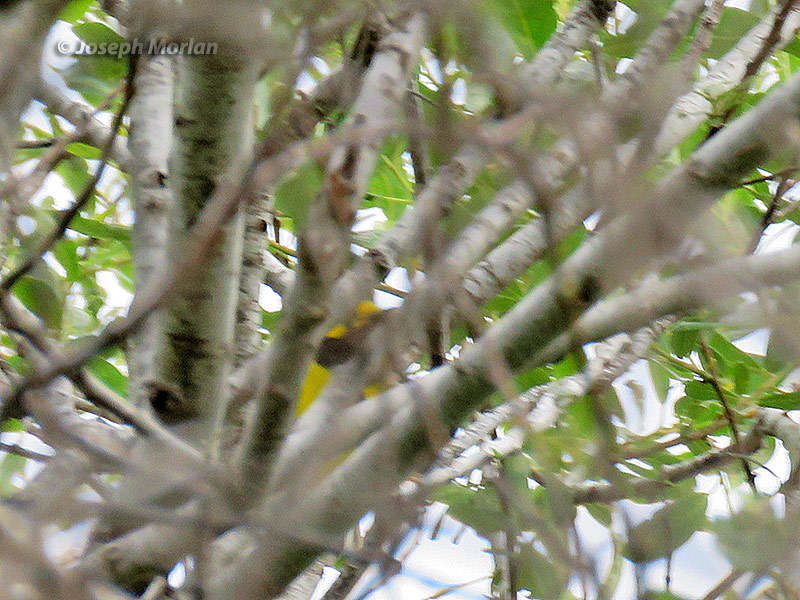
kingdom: Animalia
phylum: Chordata
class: Aves
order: Passeriformes
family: Parulidae
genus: Setophaga
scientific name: Setophaga citrina
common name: Hooded warbler
